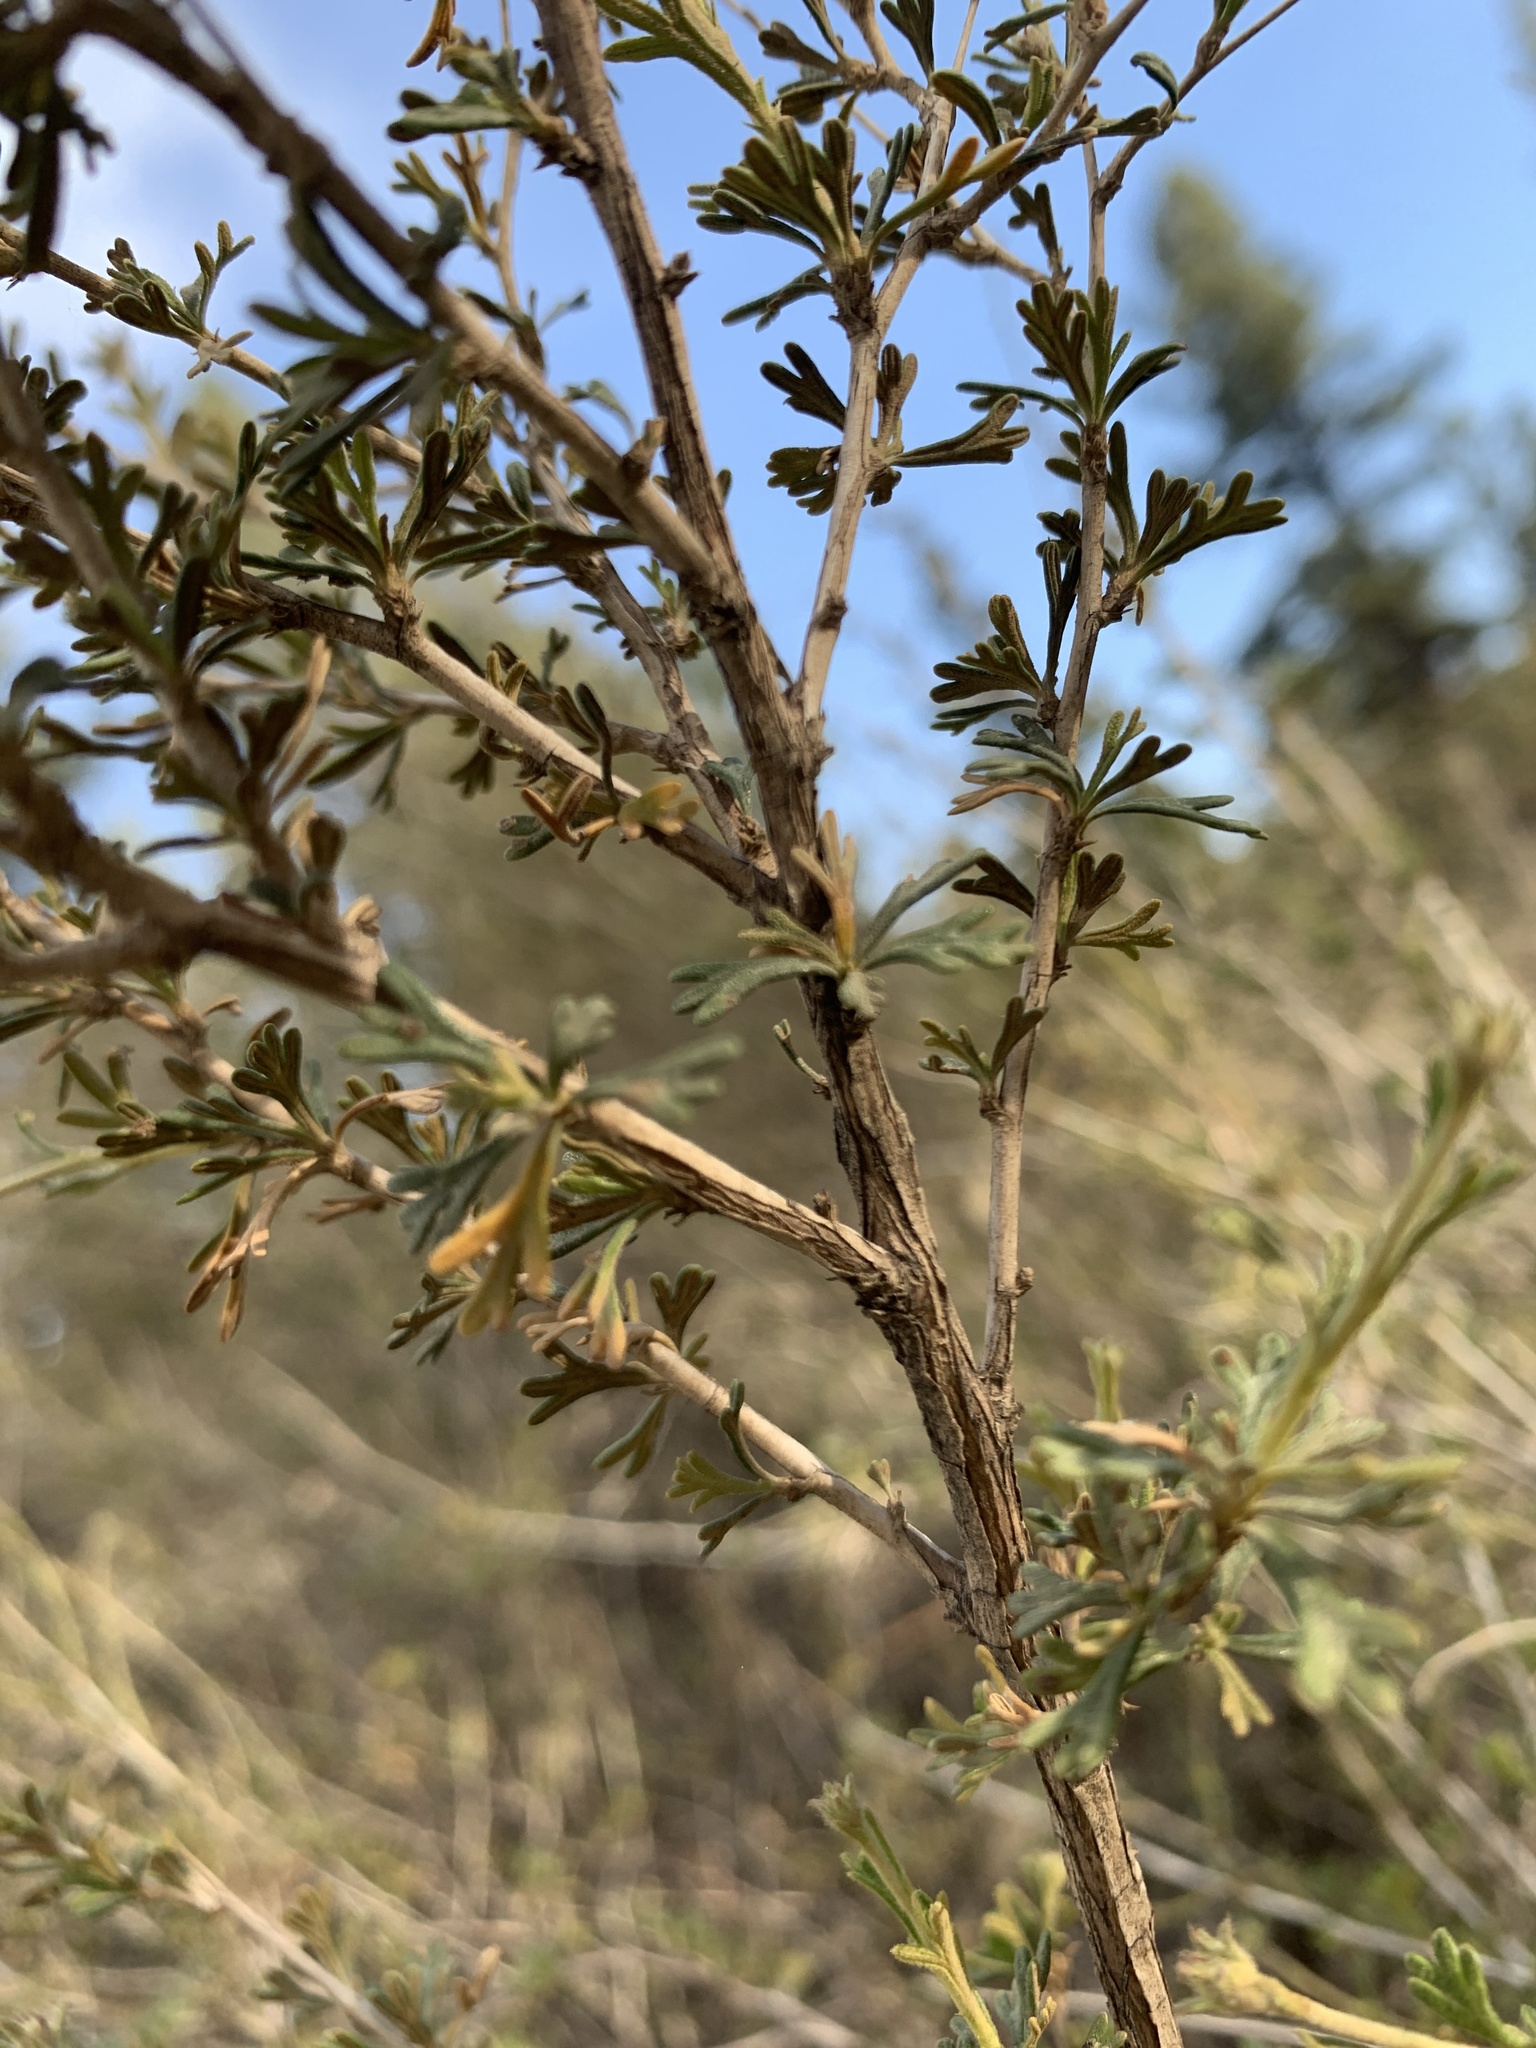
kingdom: Plantae
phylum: Tracheophyta
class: Magnoliopsida
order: Rosales
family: Rosaceae
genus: Fallugia
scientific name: Fallugia paradoxa
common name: Apache-plume
